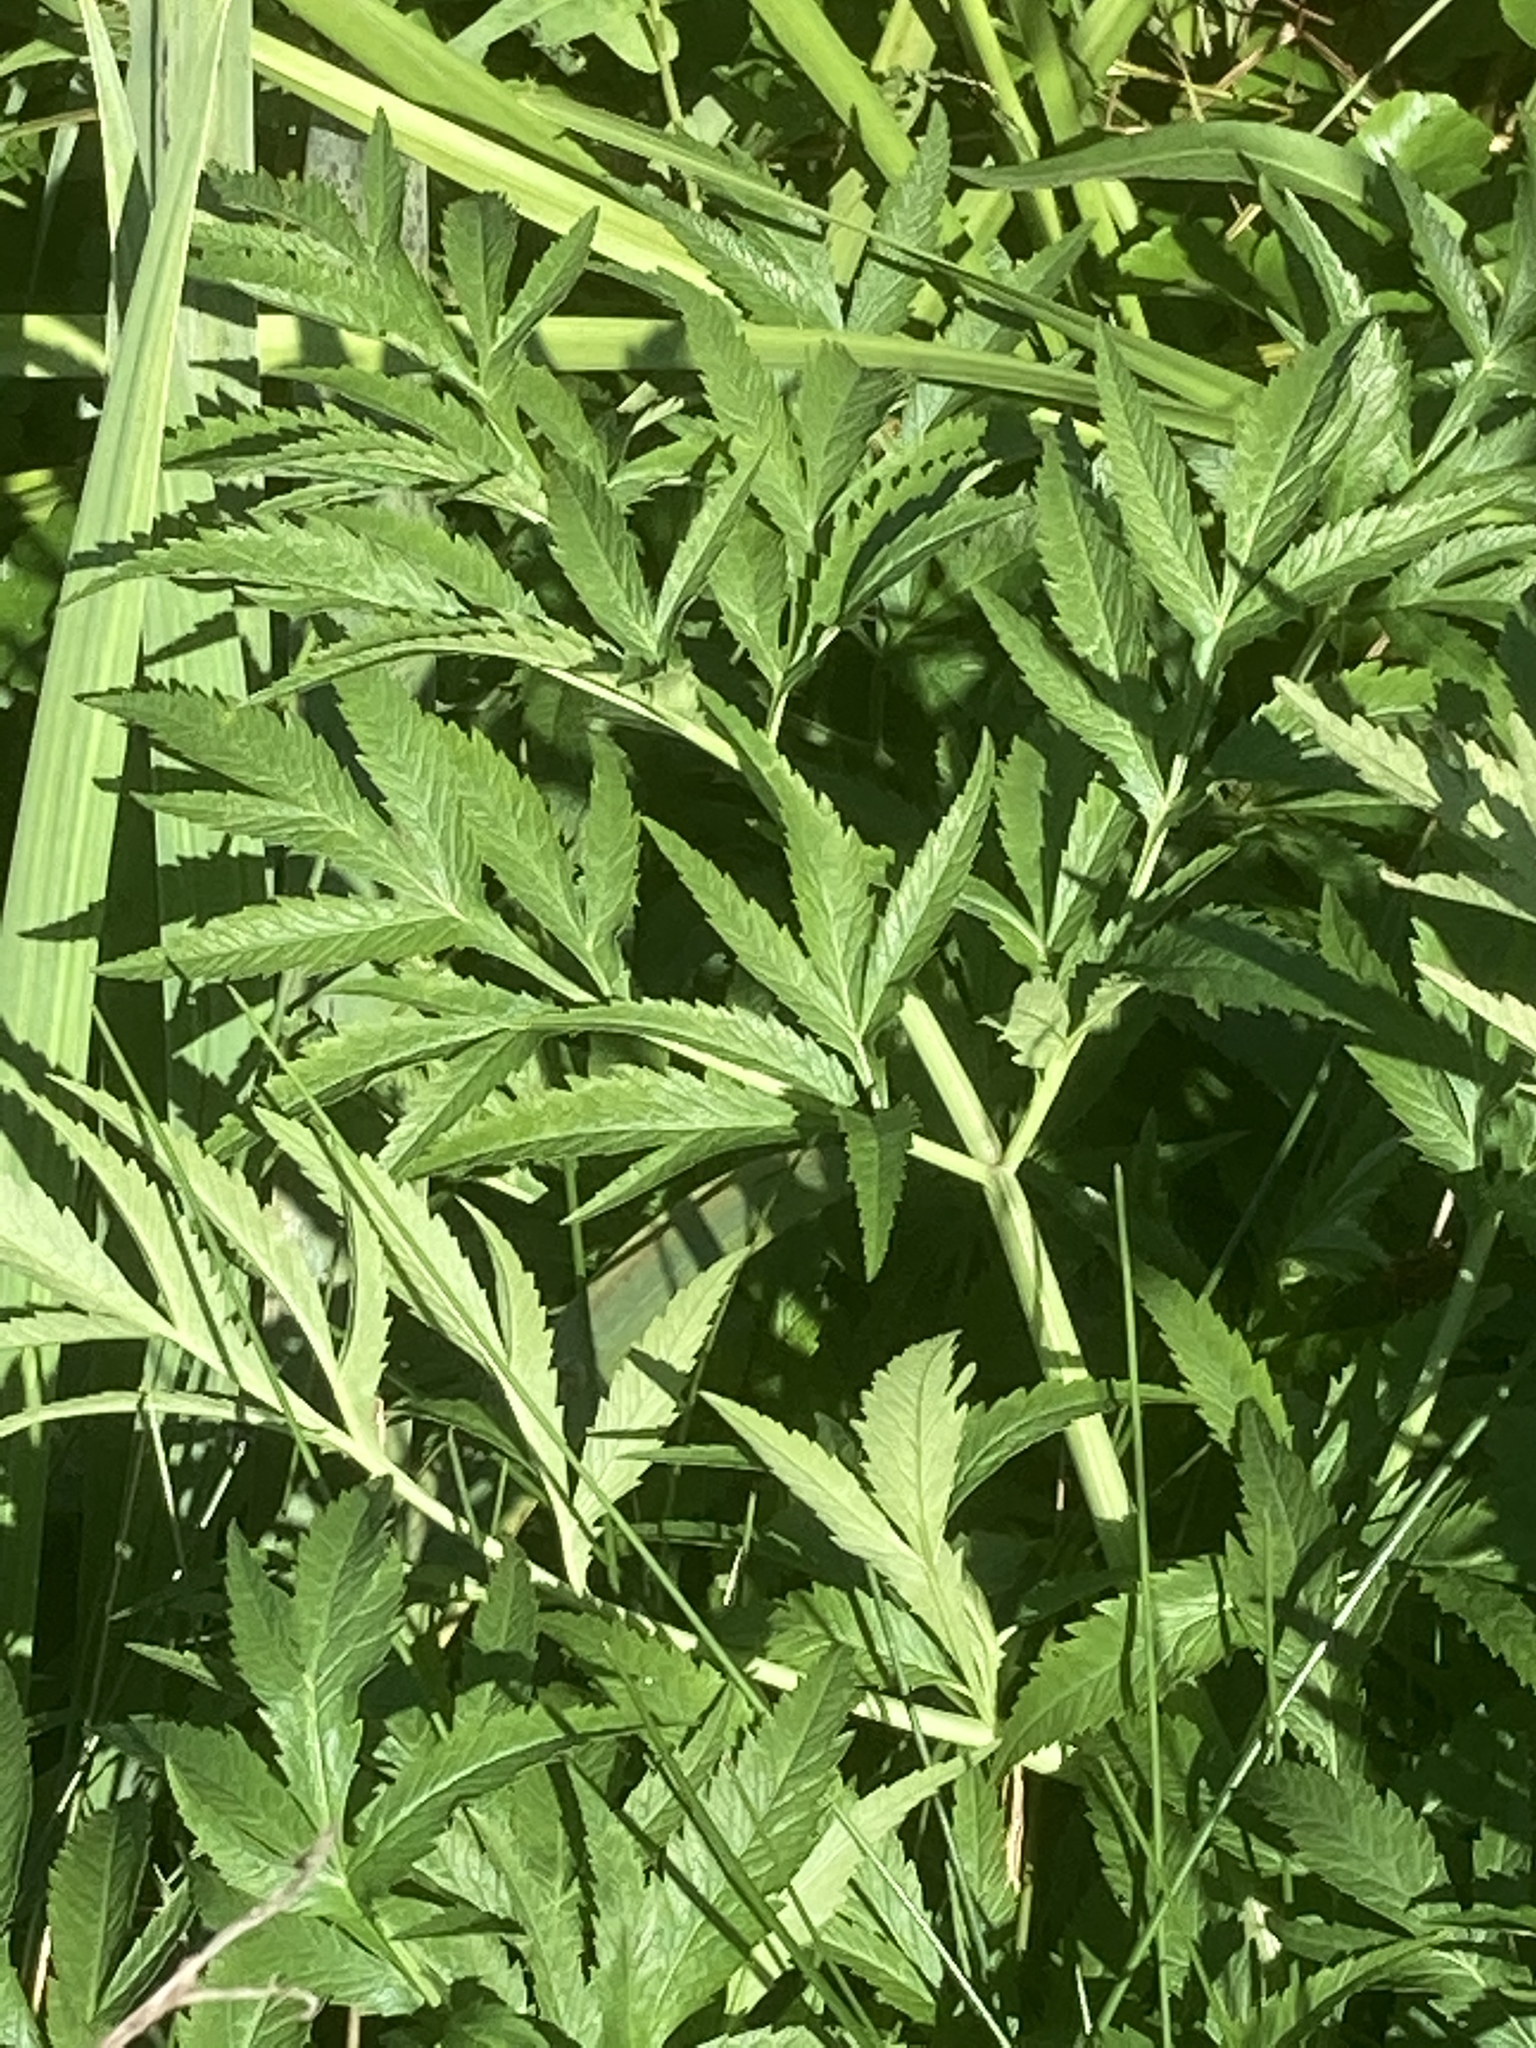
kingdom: Plantae
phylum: Tracheophyta
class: Magnoliopsida
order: Apiales
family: Apiaceae
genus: Cicuta
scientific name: Cicuta virosa
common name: Cowbane
